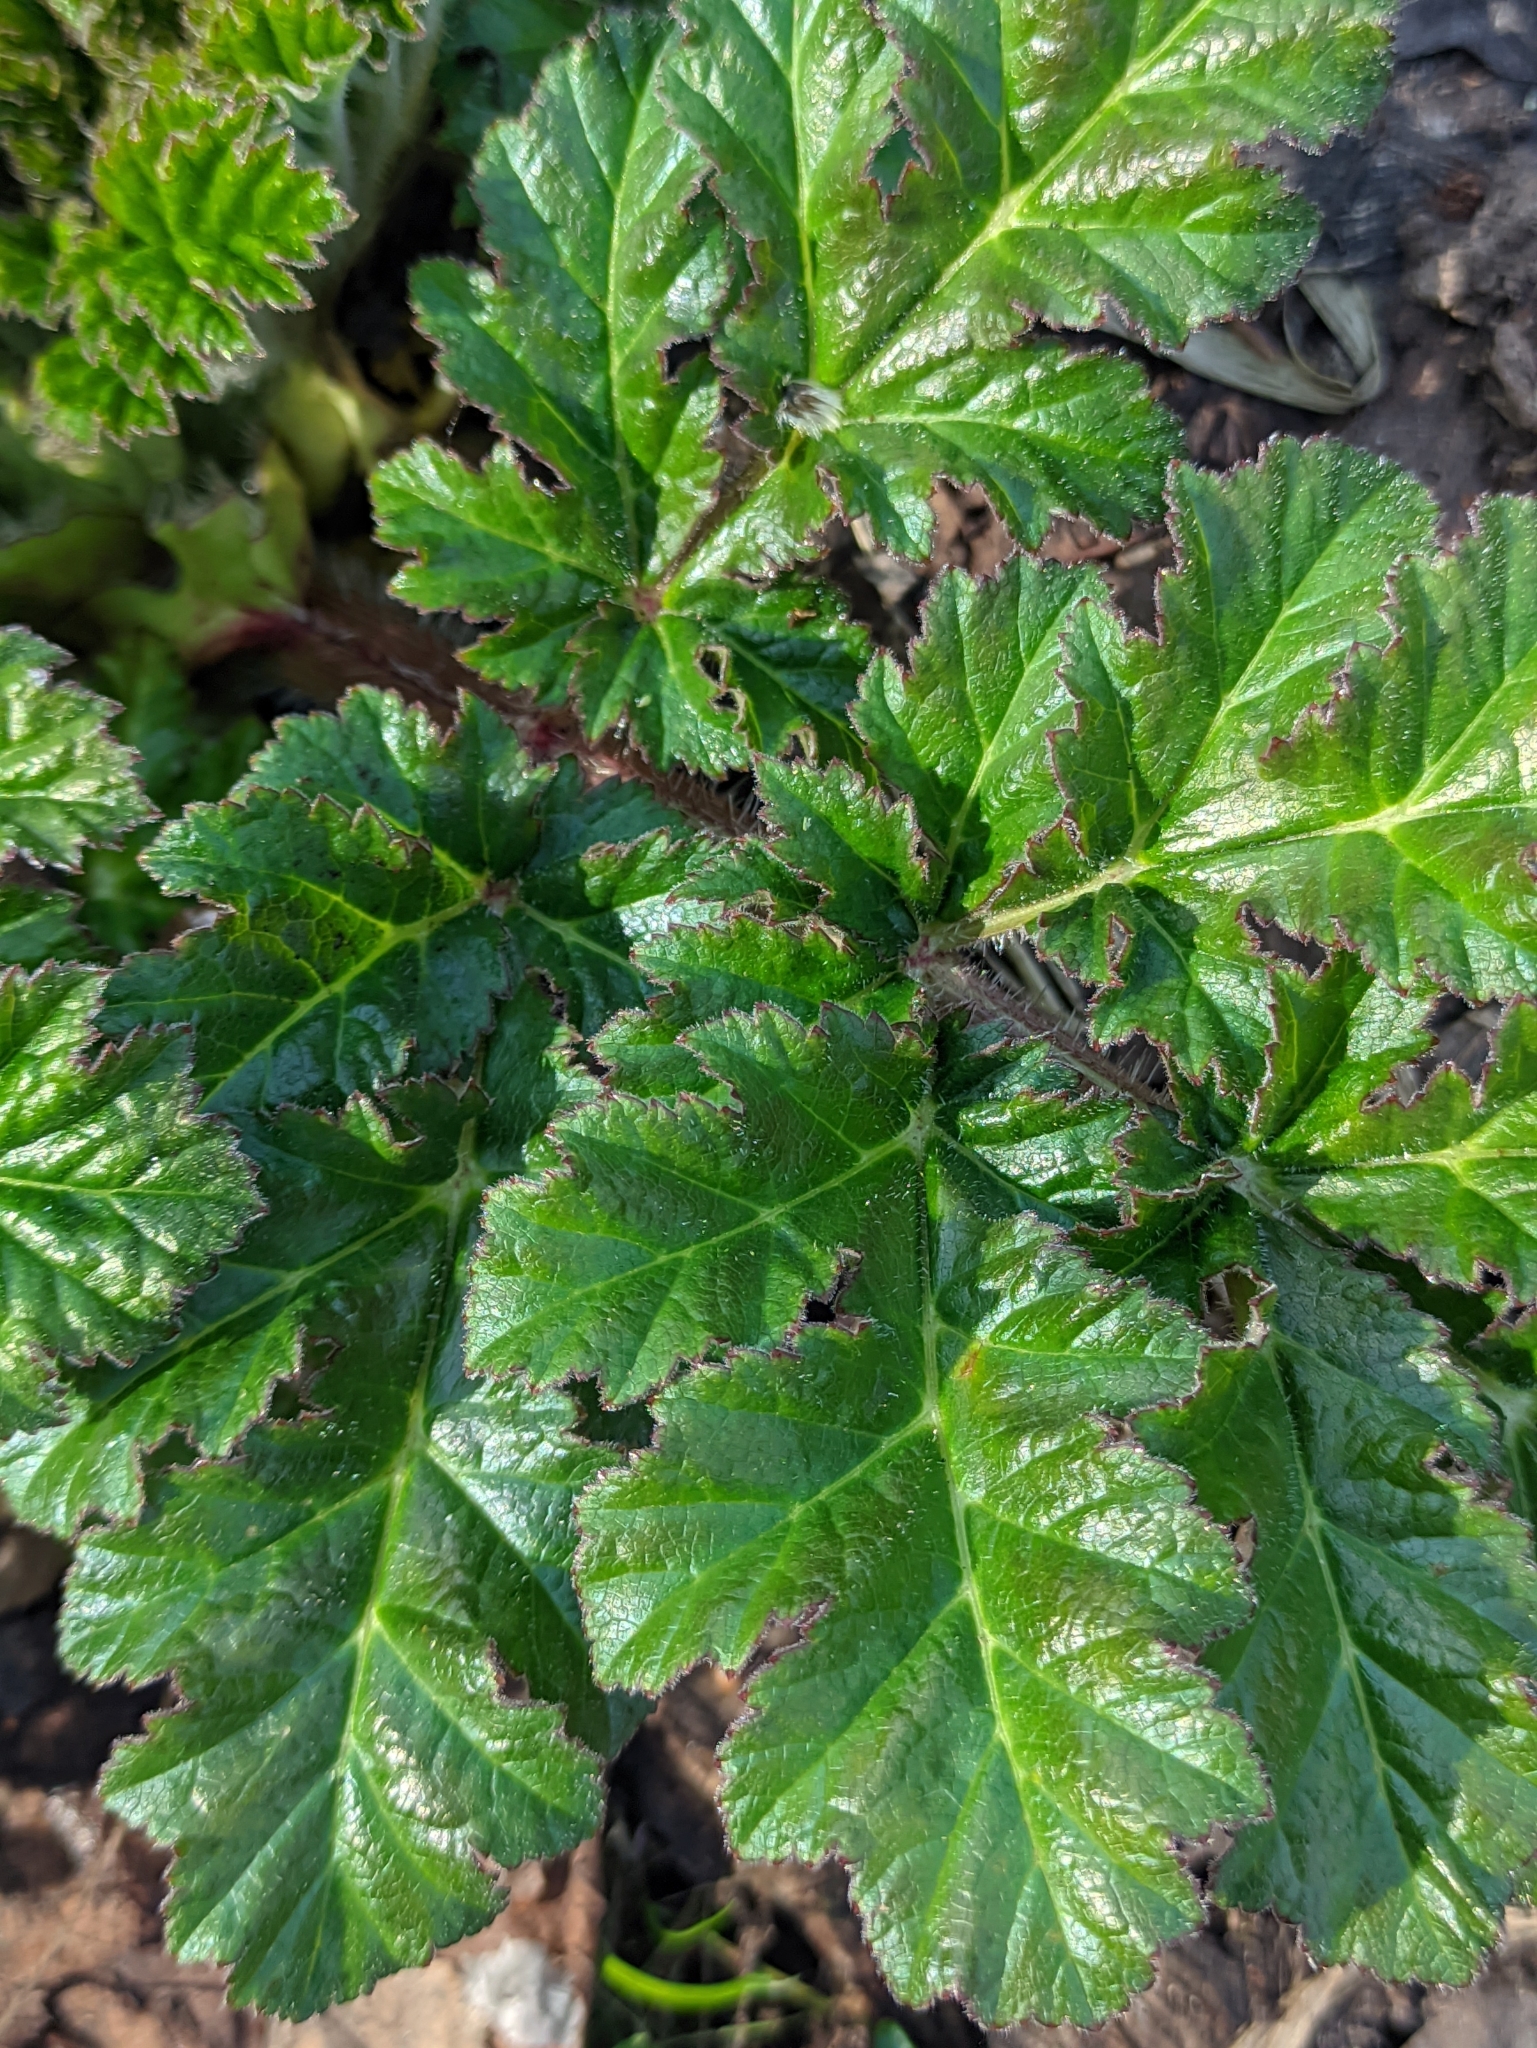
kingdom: Plantae
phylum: Tracheophyta
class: Magnoliopsida
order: Apiales
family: Apiaceae
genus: Heracleum
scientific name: Heracleum sosnowskyi
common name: Sosnowsky's hogweed
